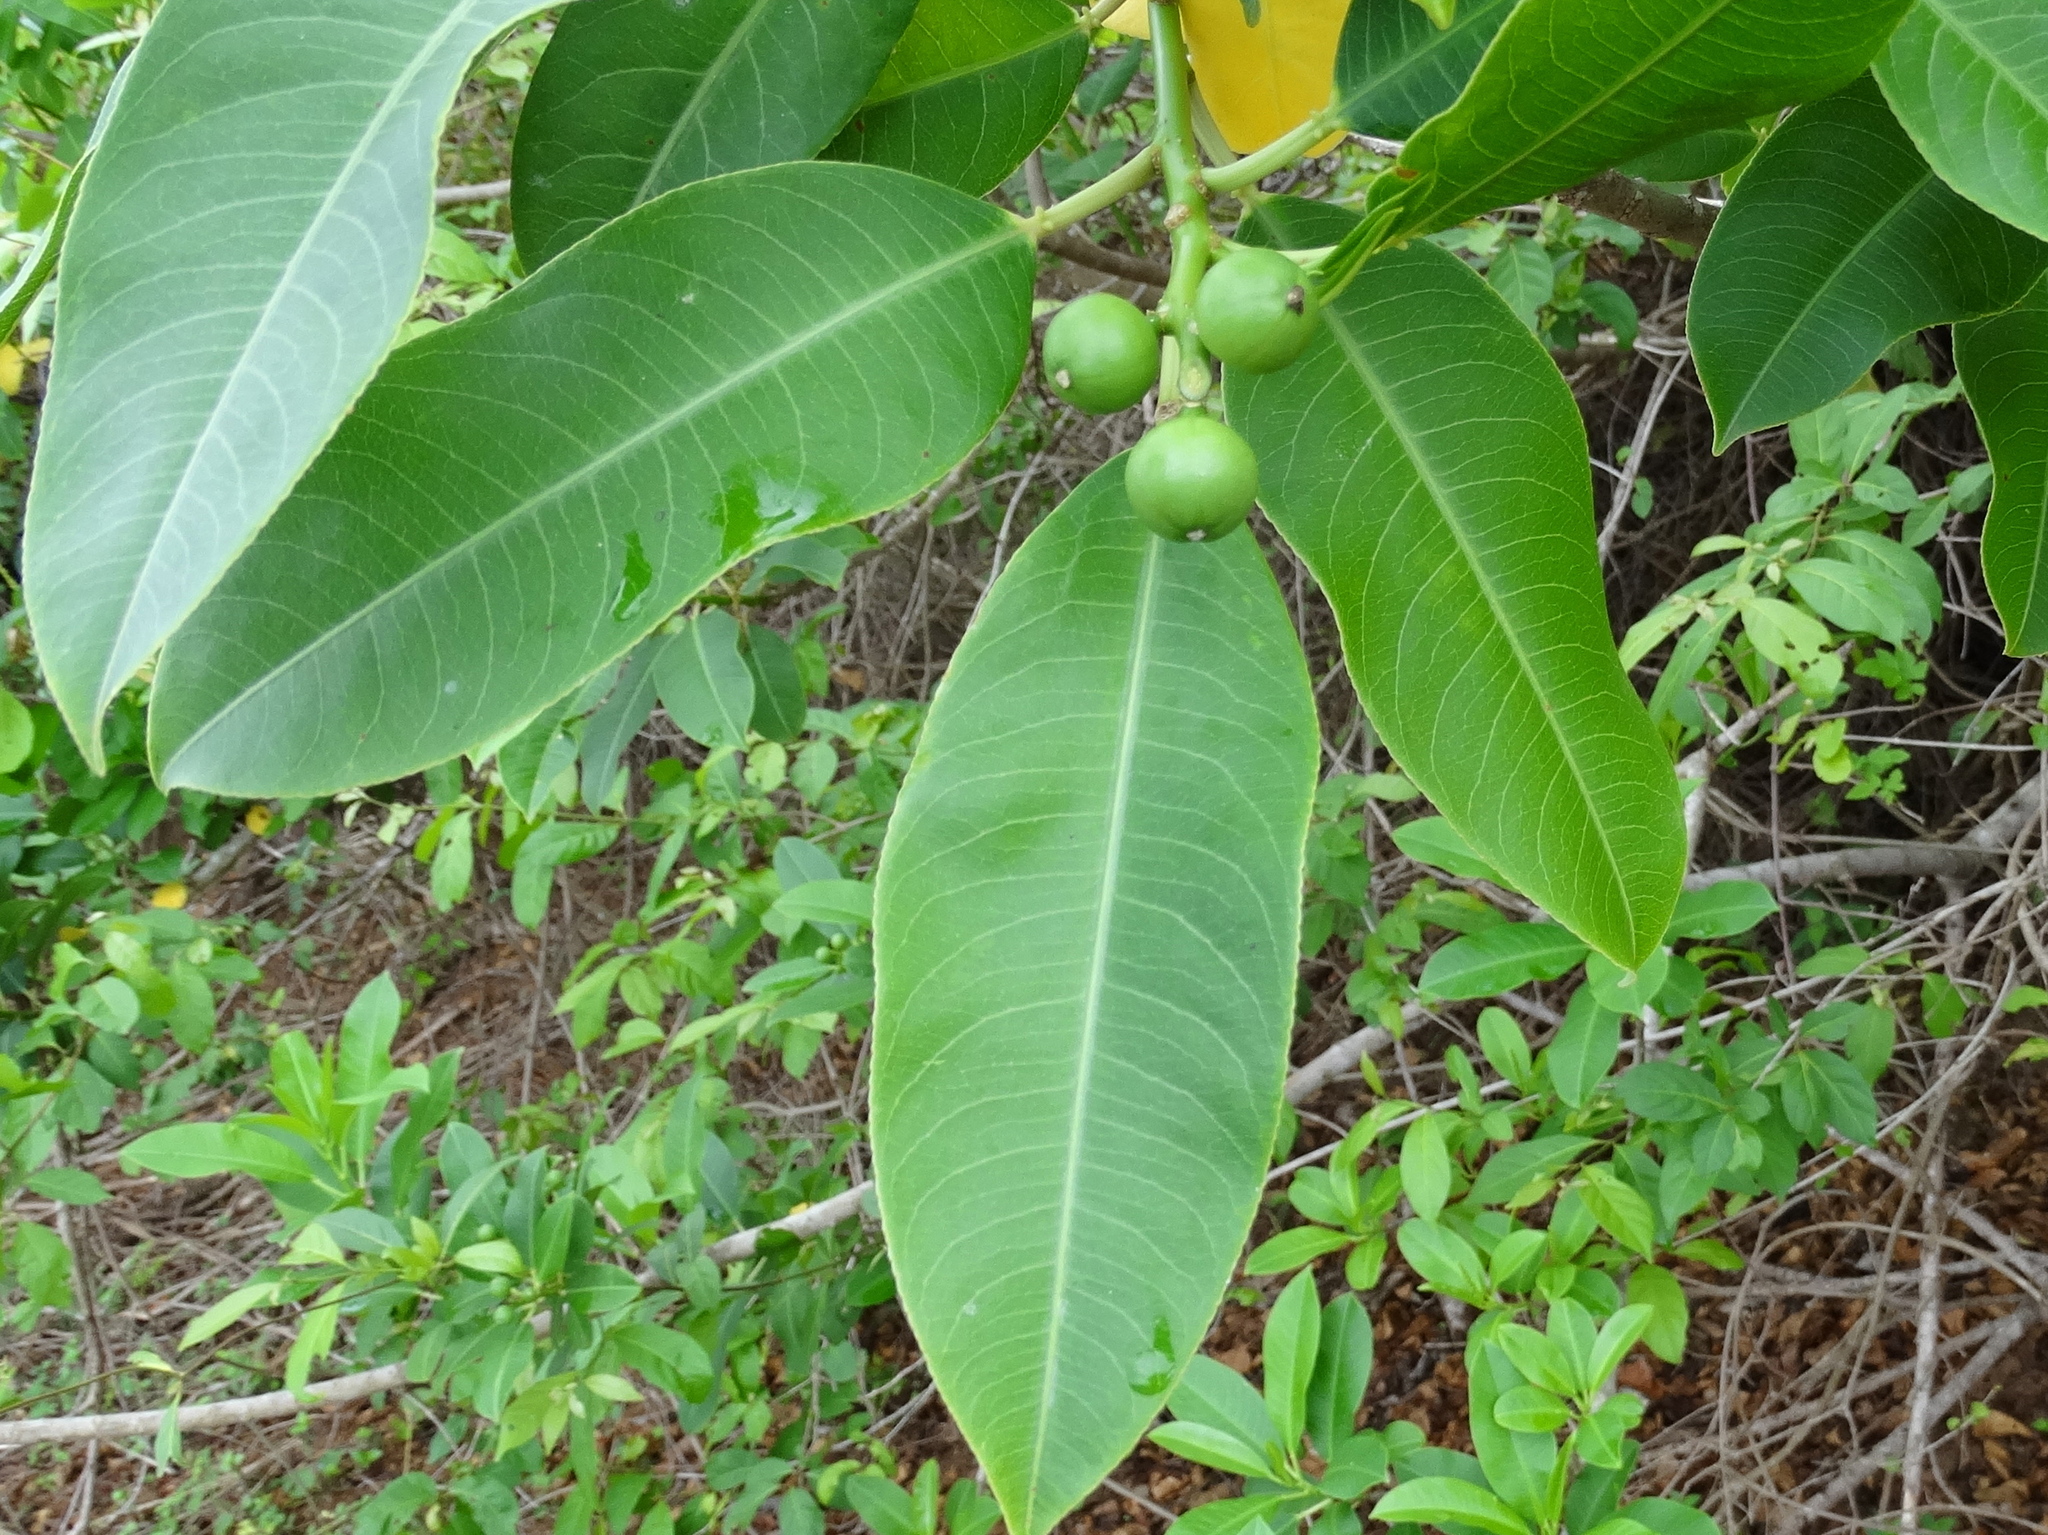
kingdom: Plantae
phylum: Tracheophyta
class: Magnoliopsida
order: Malpighiales
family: Euphorbiaceae
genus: Sapium
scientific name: Sapium lateriflorum
